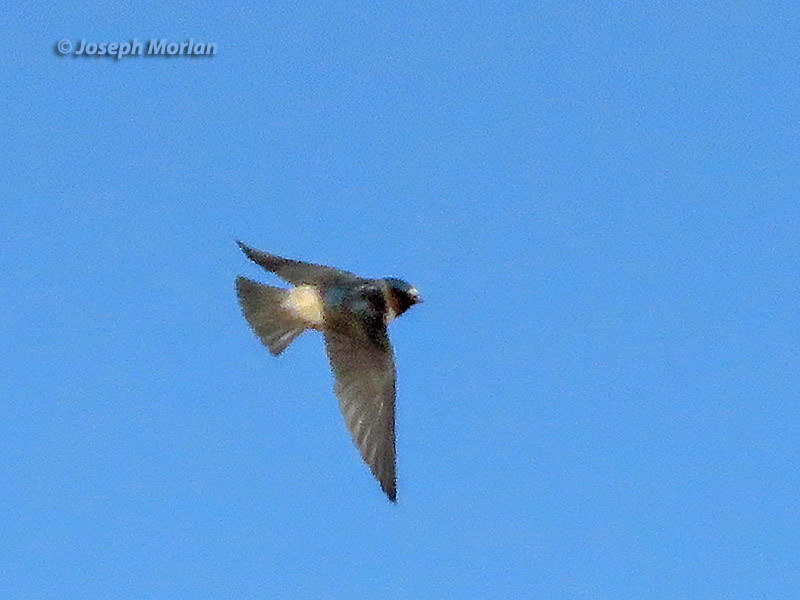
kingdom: Animalia
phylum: Chordata
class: Aves
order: Passeriformes
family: Hirundinidae
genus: Petrochelidon
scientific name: Petrochelidon pyrrhonota
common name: American cliff swallow
